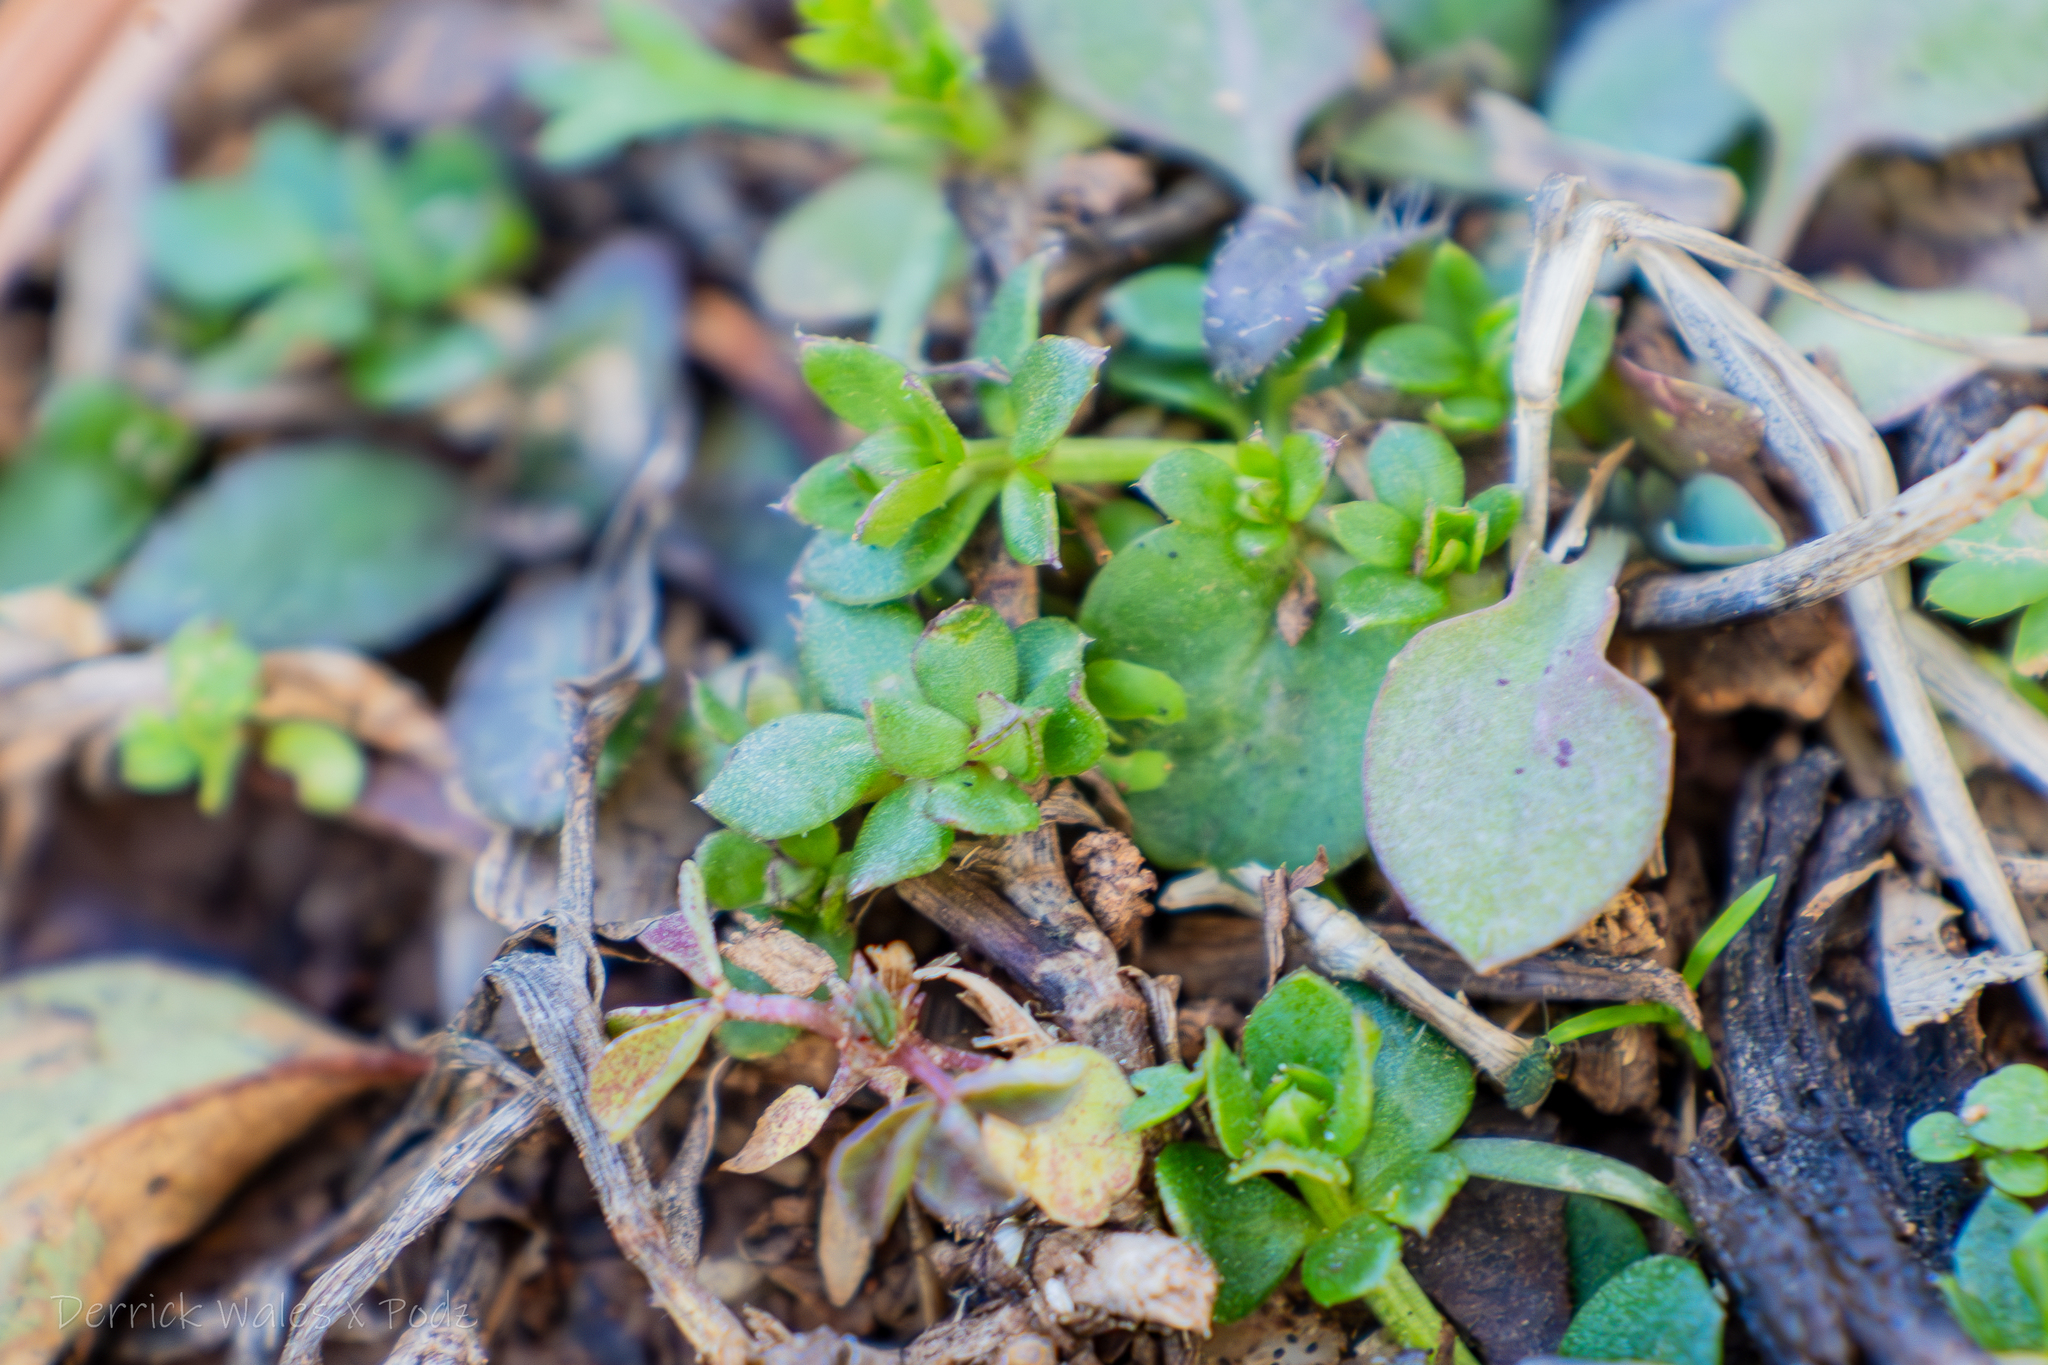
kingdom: Plantae
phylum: Tracheophyta
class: Magnoliopsida
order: Gentianales
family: Rubiaceae
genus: Sherardia
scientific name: Sherardia arvensis
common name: Field madder
